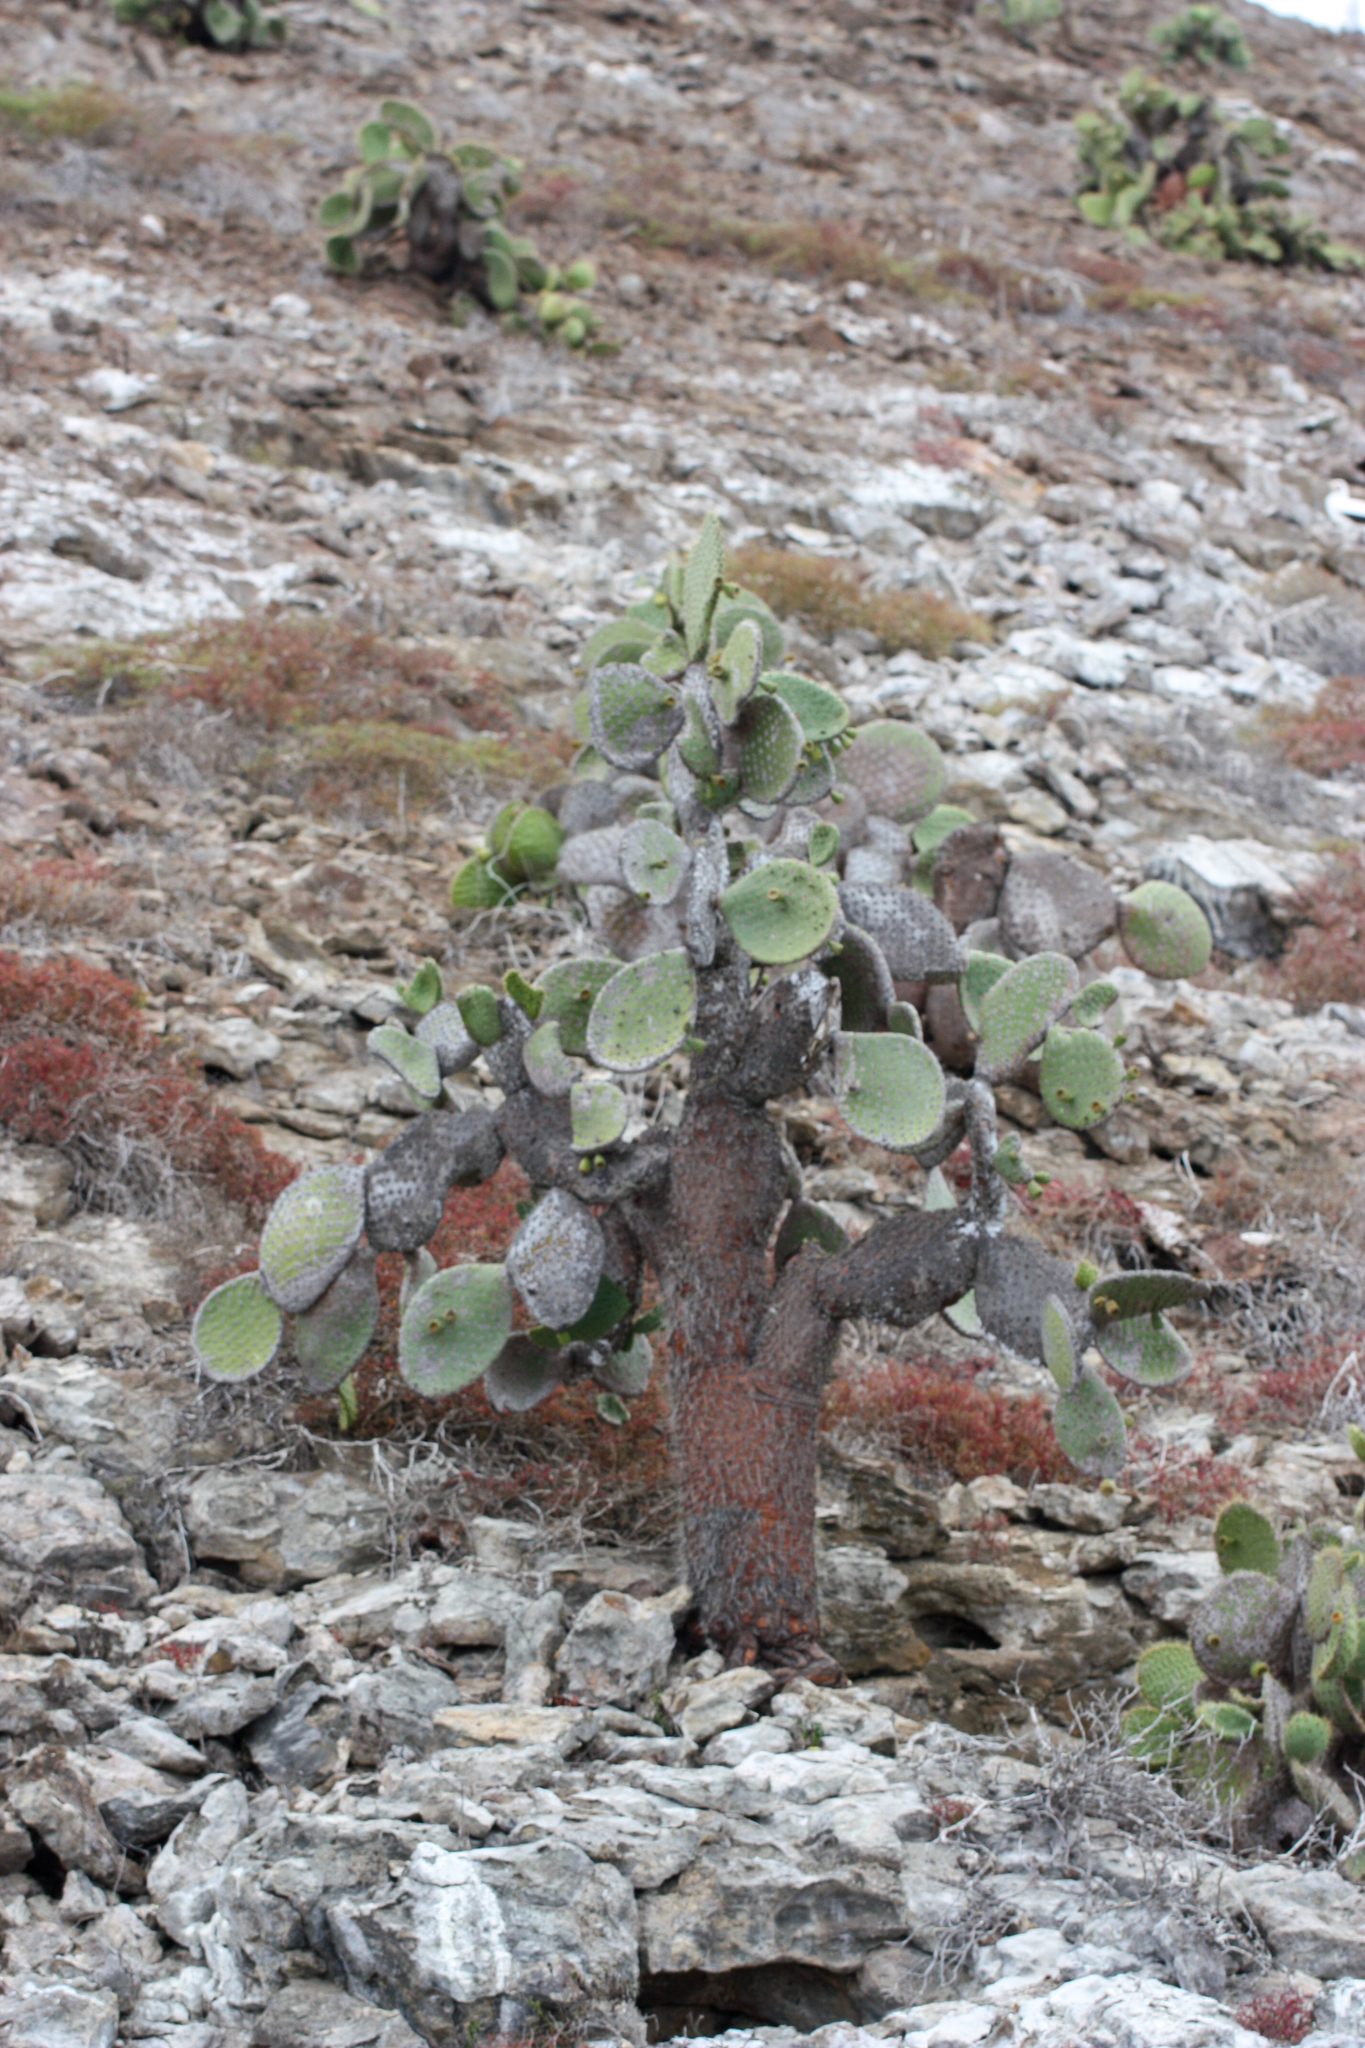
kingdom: Plantae
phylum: Tracheophyta
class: Magnoliopsida
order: Caryophyllales
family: Cactaceae
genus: Opuntia
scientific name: Opuntia galapageia
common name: Galápagos prickly pear
